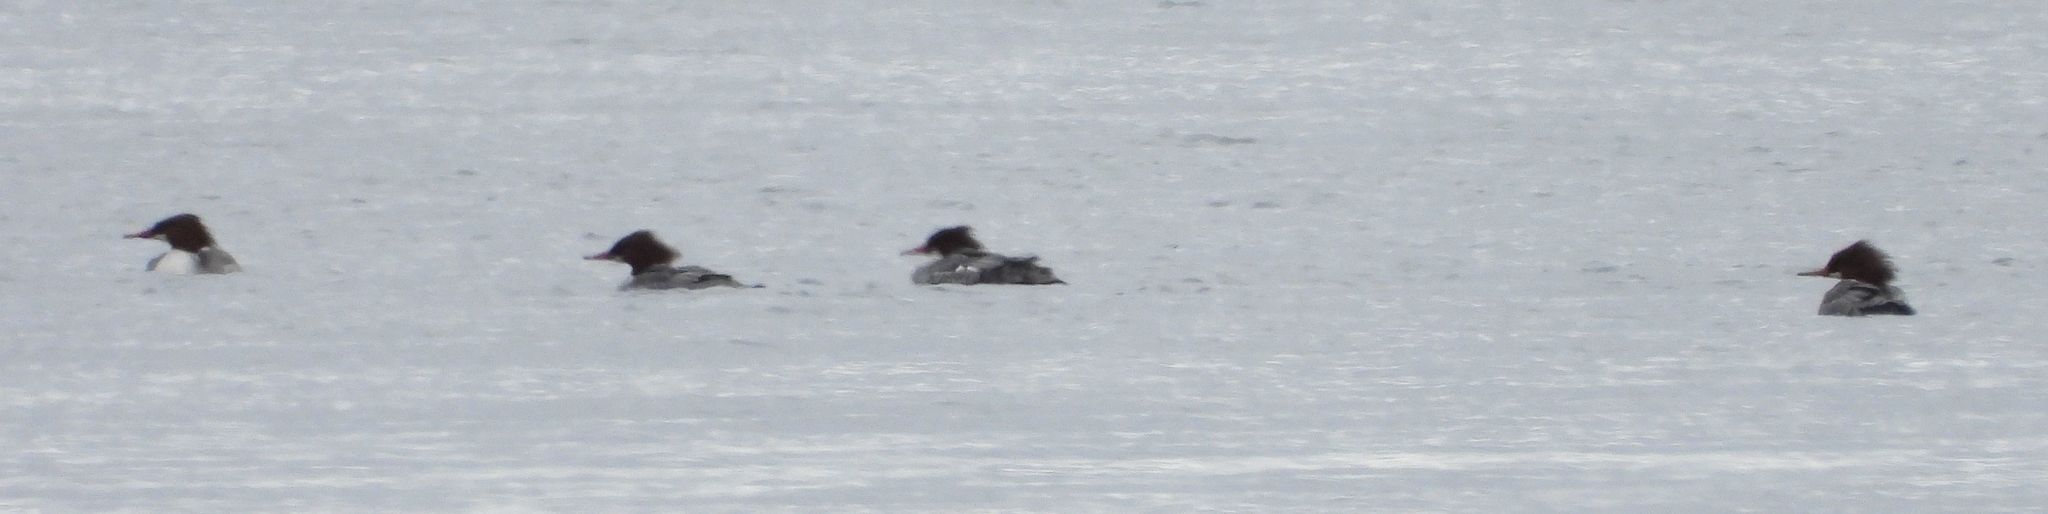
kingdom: Animalia
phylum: Chordata
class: Aves
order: Anseriformes
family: Anatidae
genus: Mergus
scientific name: Mergus merganser
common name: Common merganser
